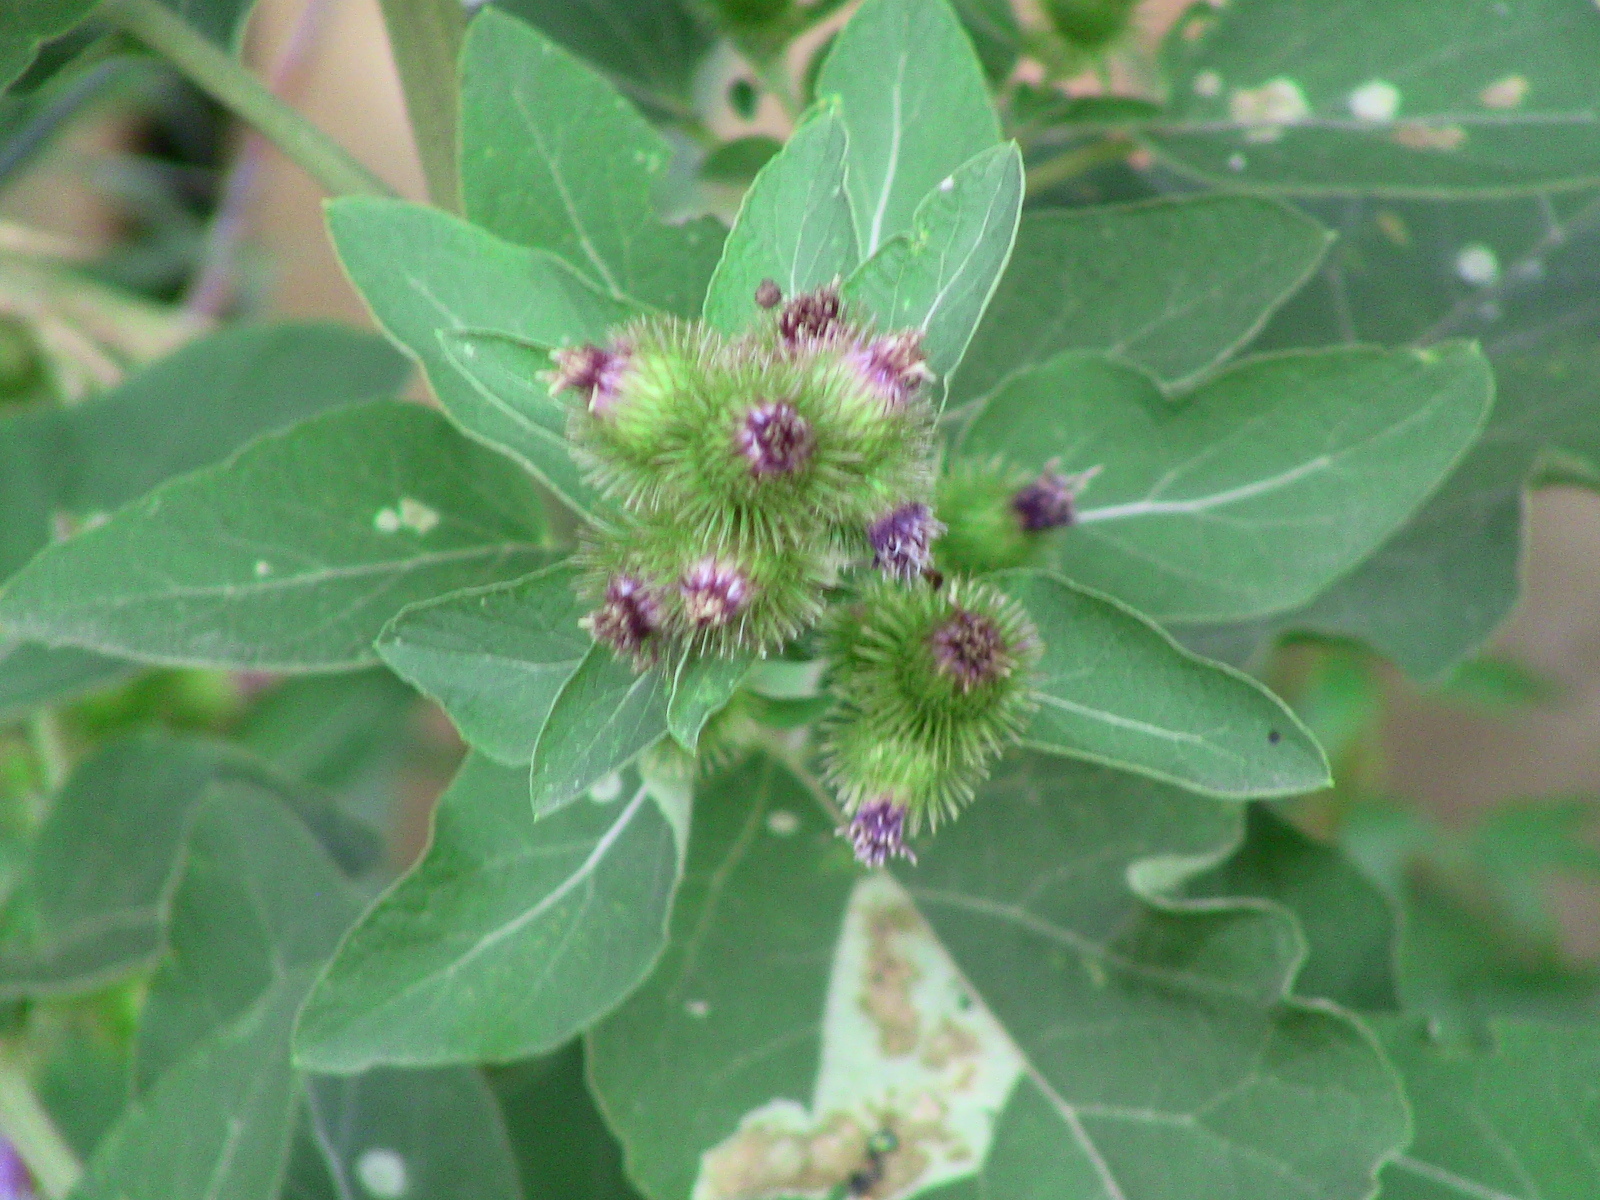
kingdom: Plantae
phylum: Tracheophyta
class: Magnoliopsida
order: Asterales
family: Asteraceae
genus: Arctium
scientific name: Arctium minus
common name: Lesser burdock
